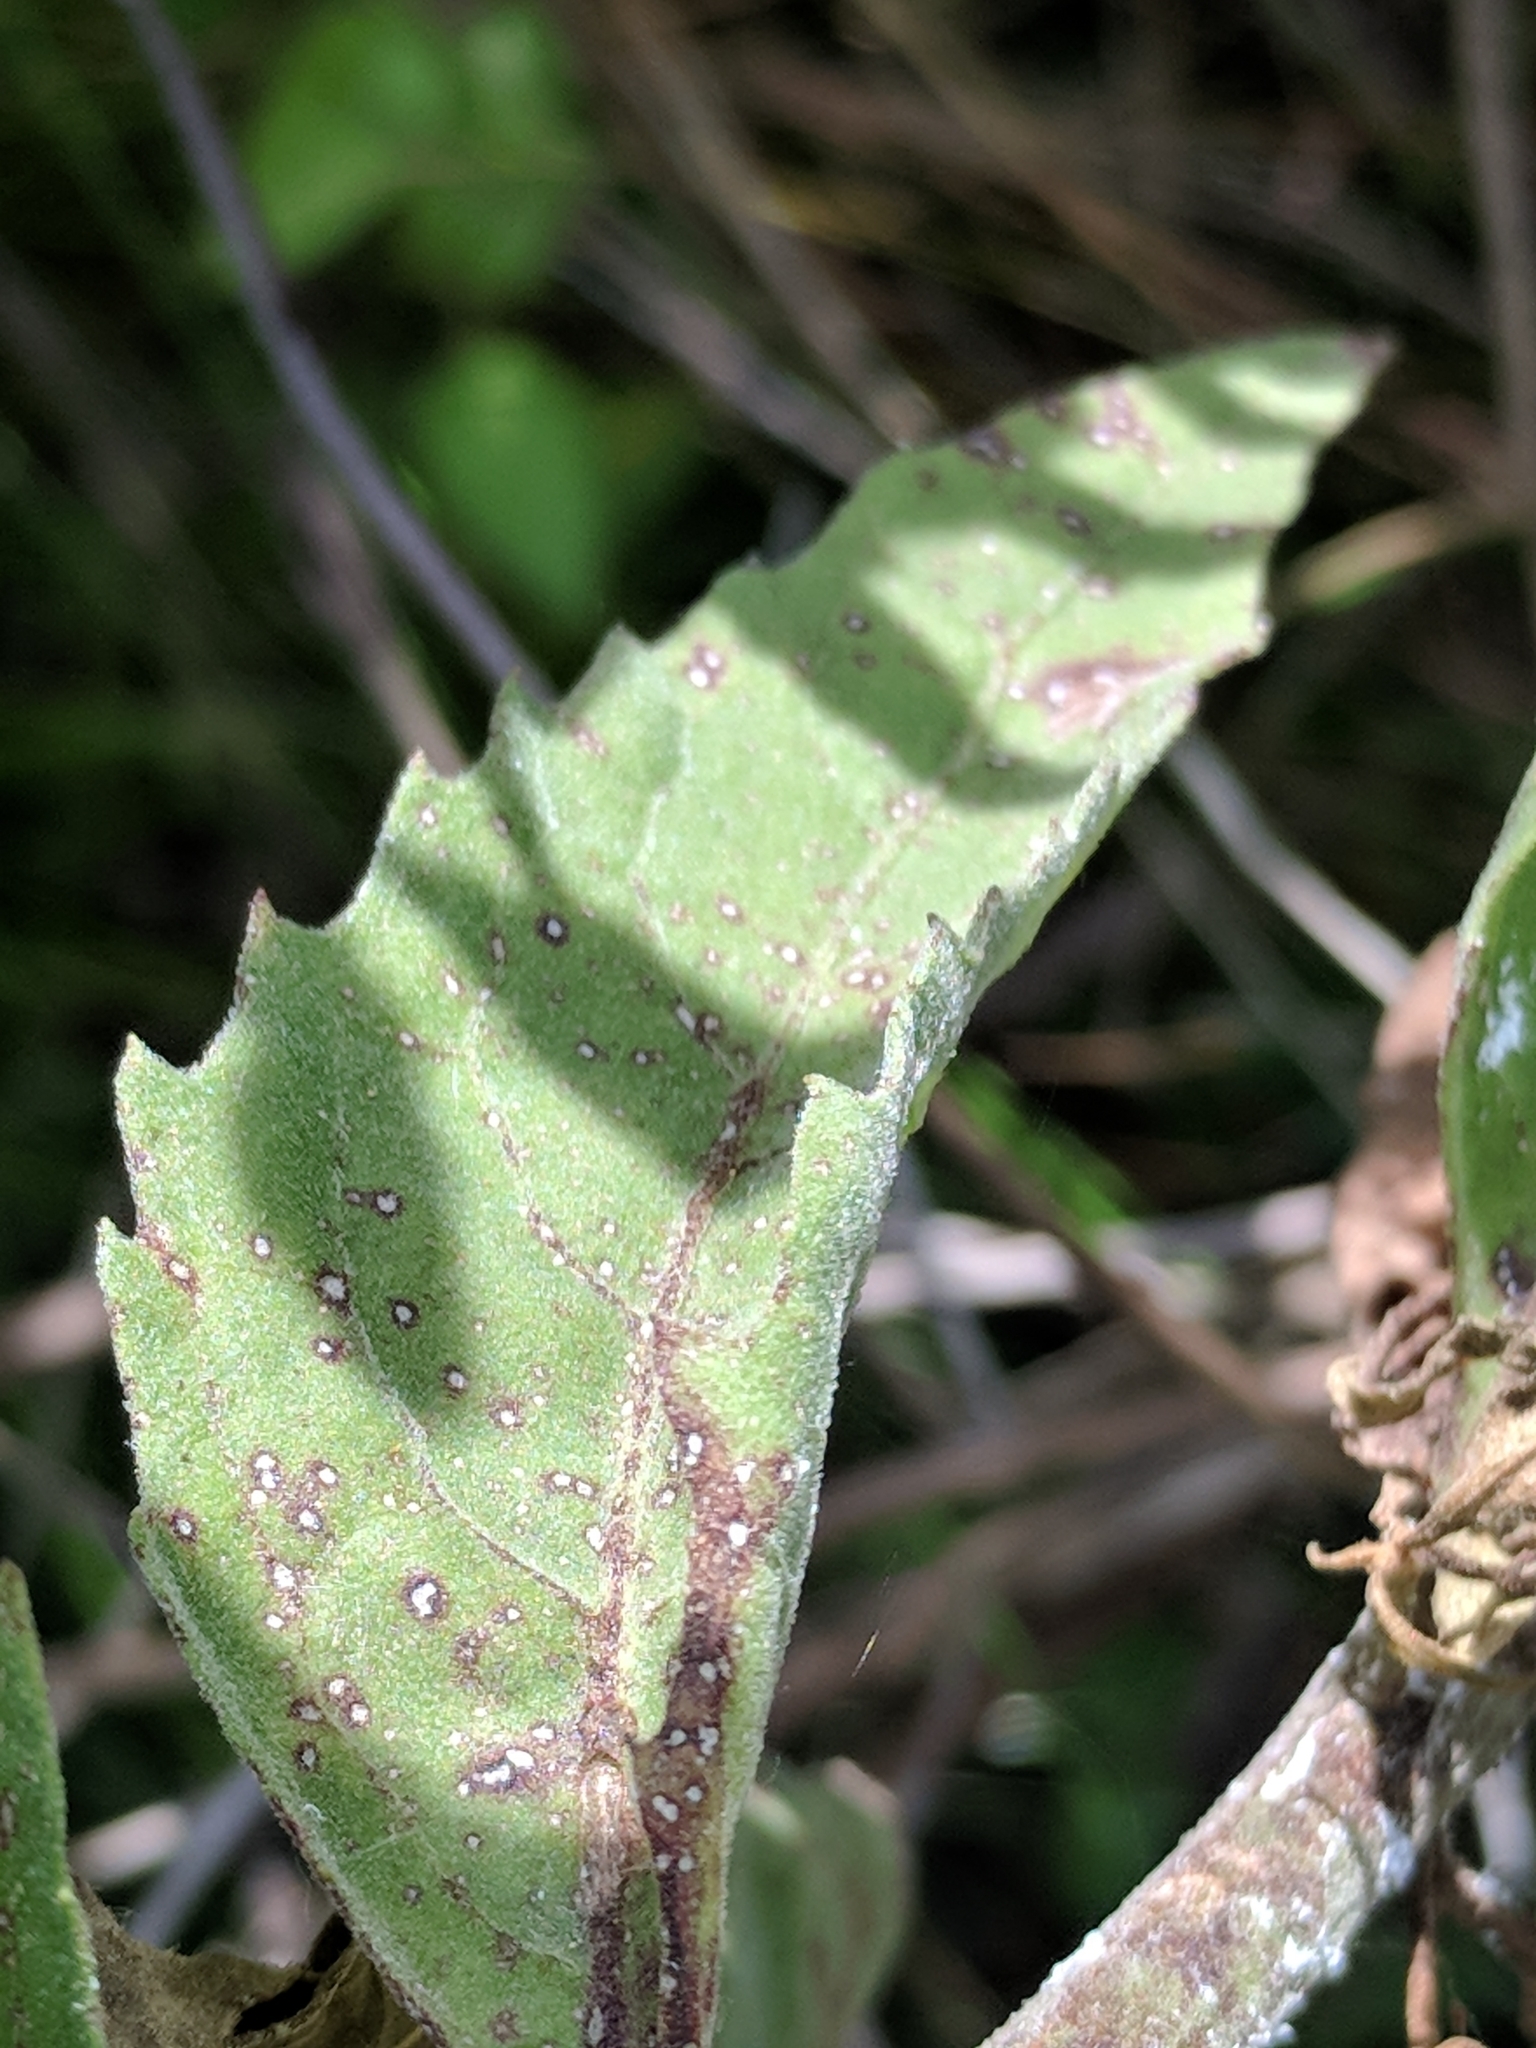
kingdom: Plantae
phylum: Tracheophyta
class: Magnoliopsida
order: Asterales
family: Asteraceae
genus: Pluchea
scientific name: Pluchea odorata
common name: Saltmarsh fleabane
